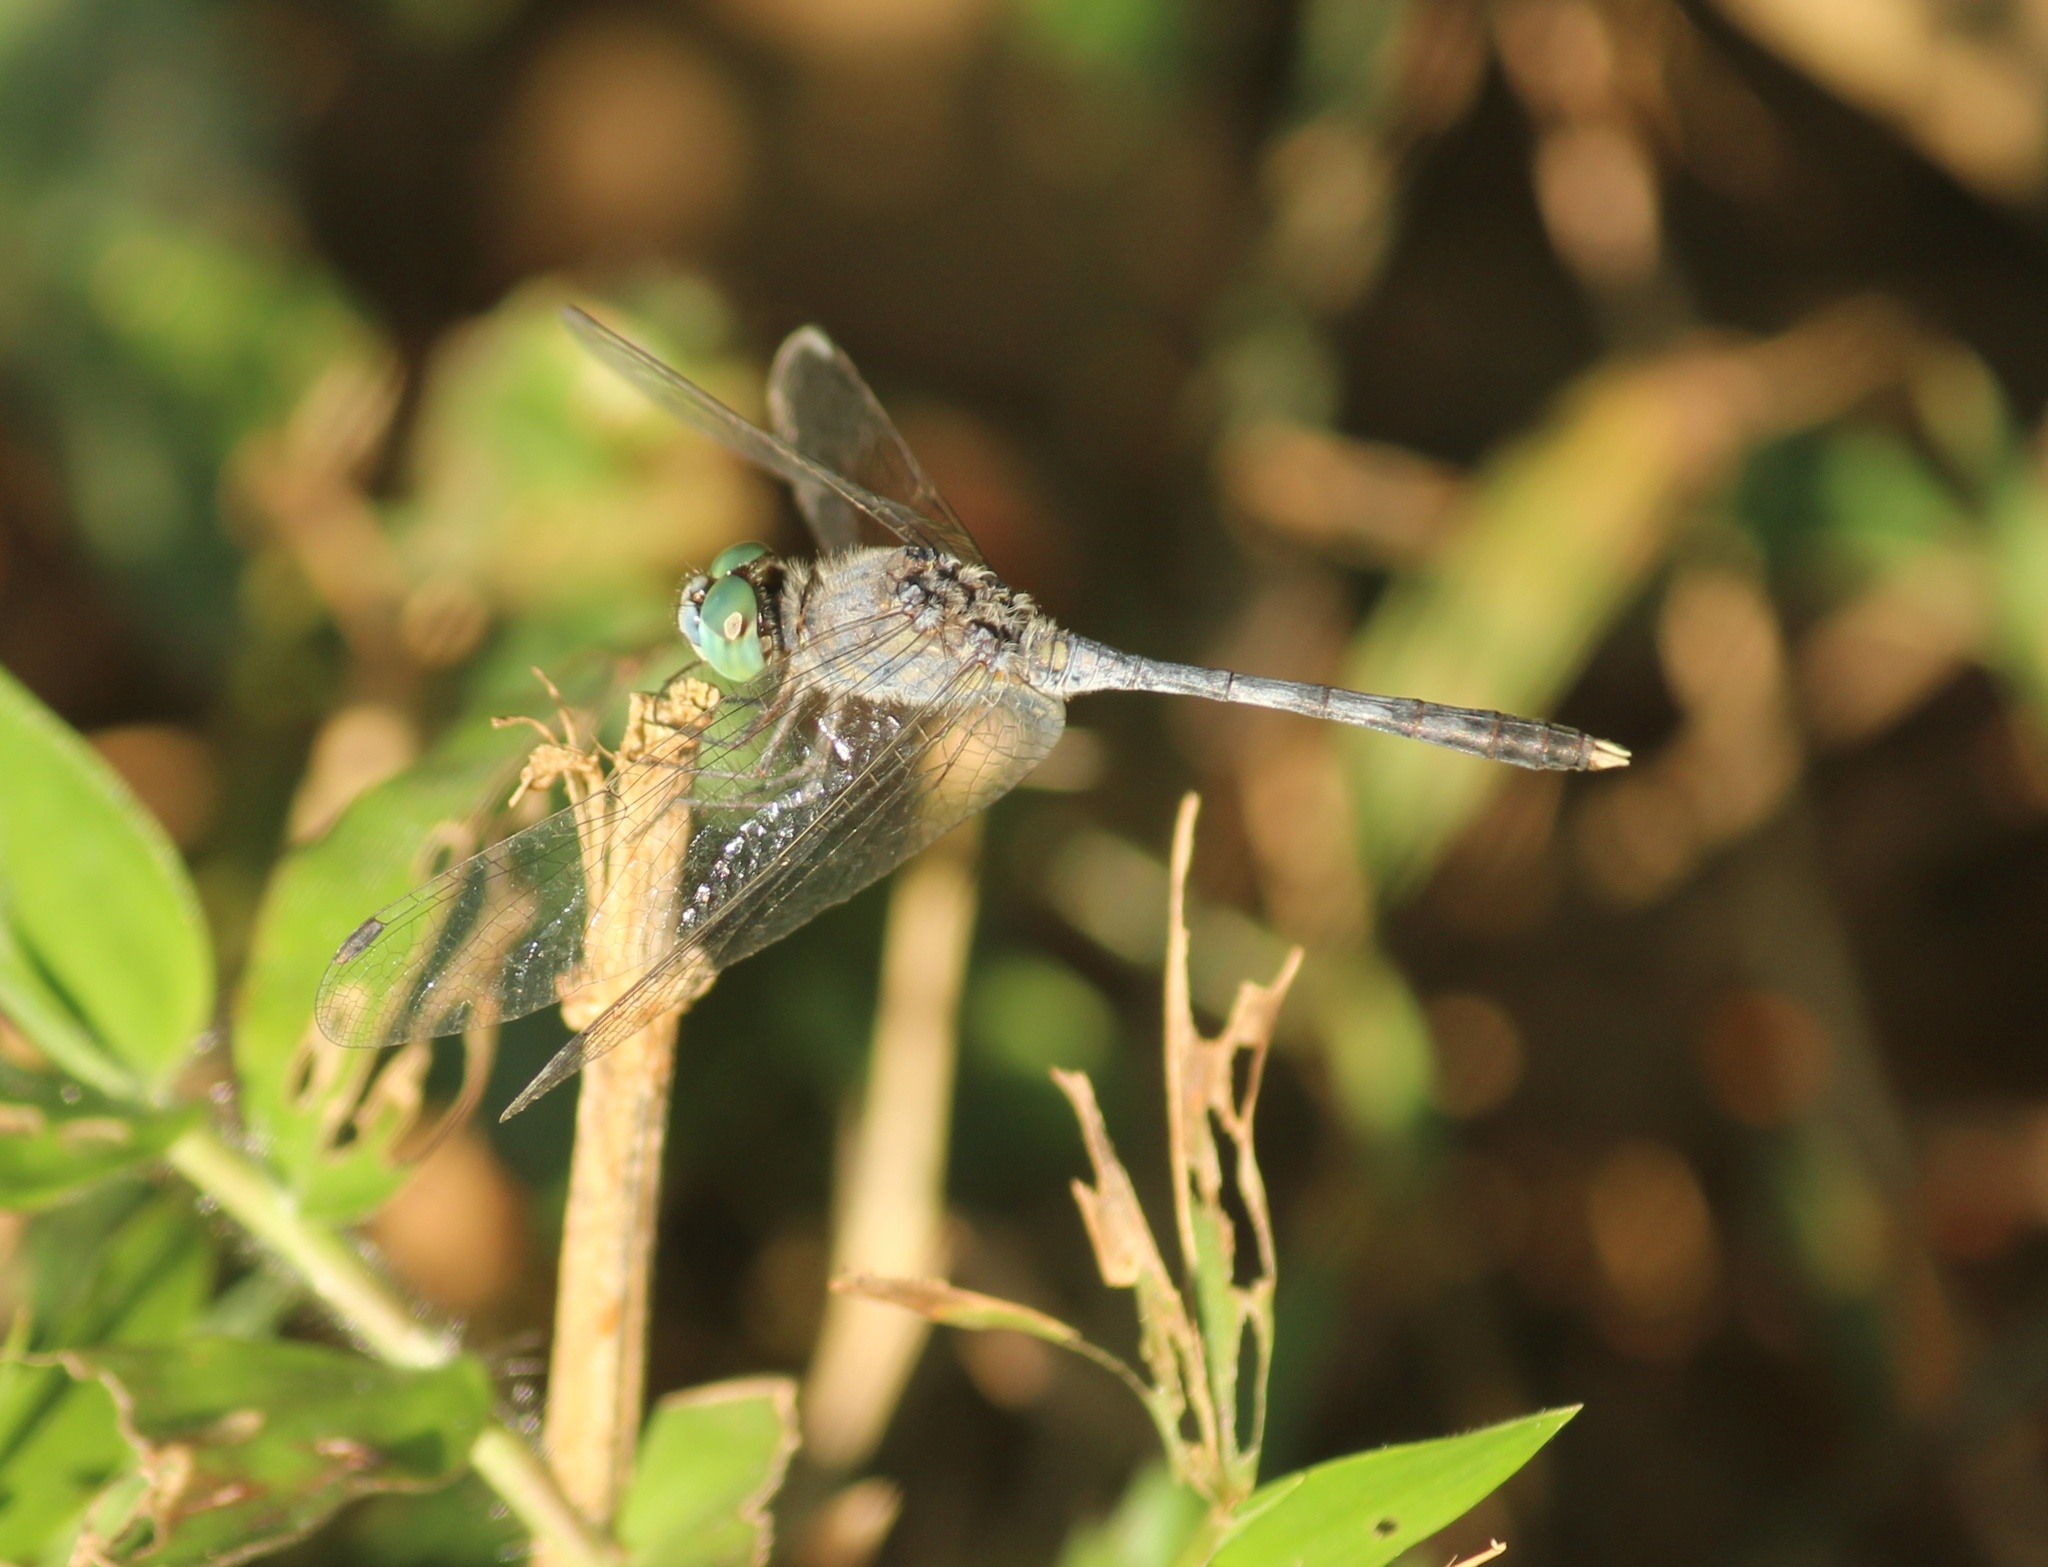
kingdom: Animalia
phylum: Arthropoda
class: Insecta
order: Odonata
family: Libellulidae
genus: Diplacodes
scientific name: Diplacodes trivialis
